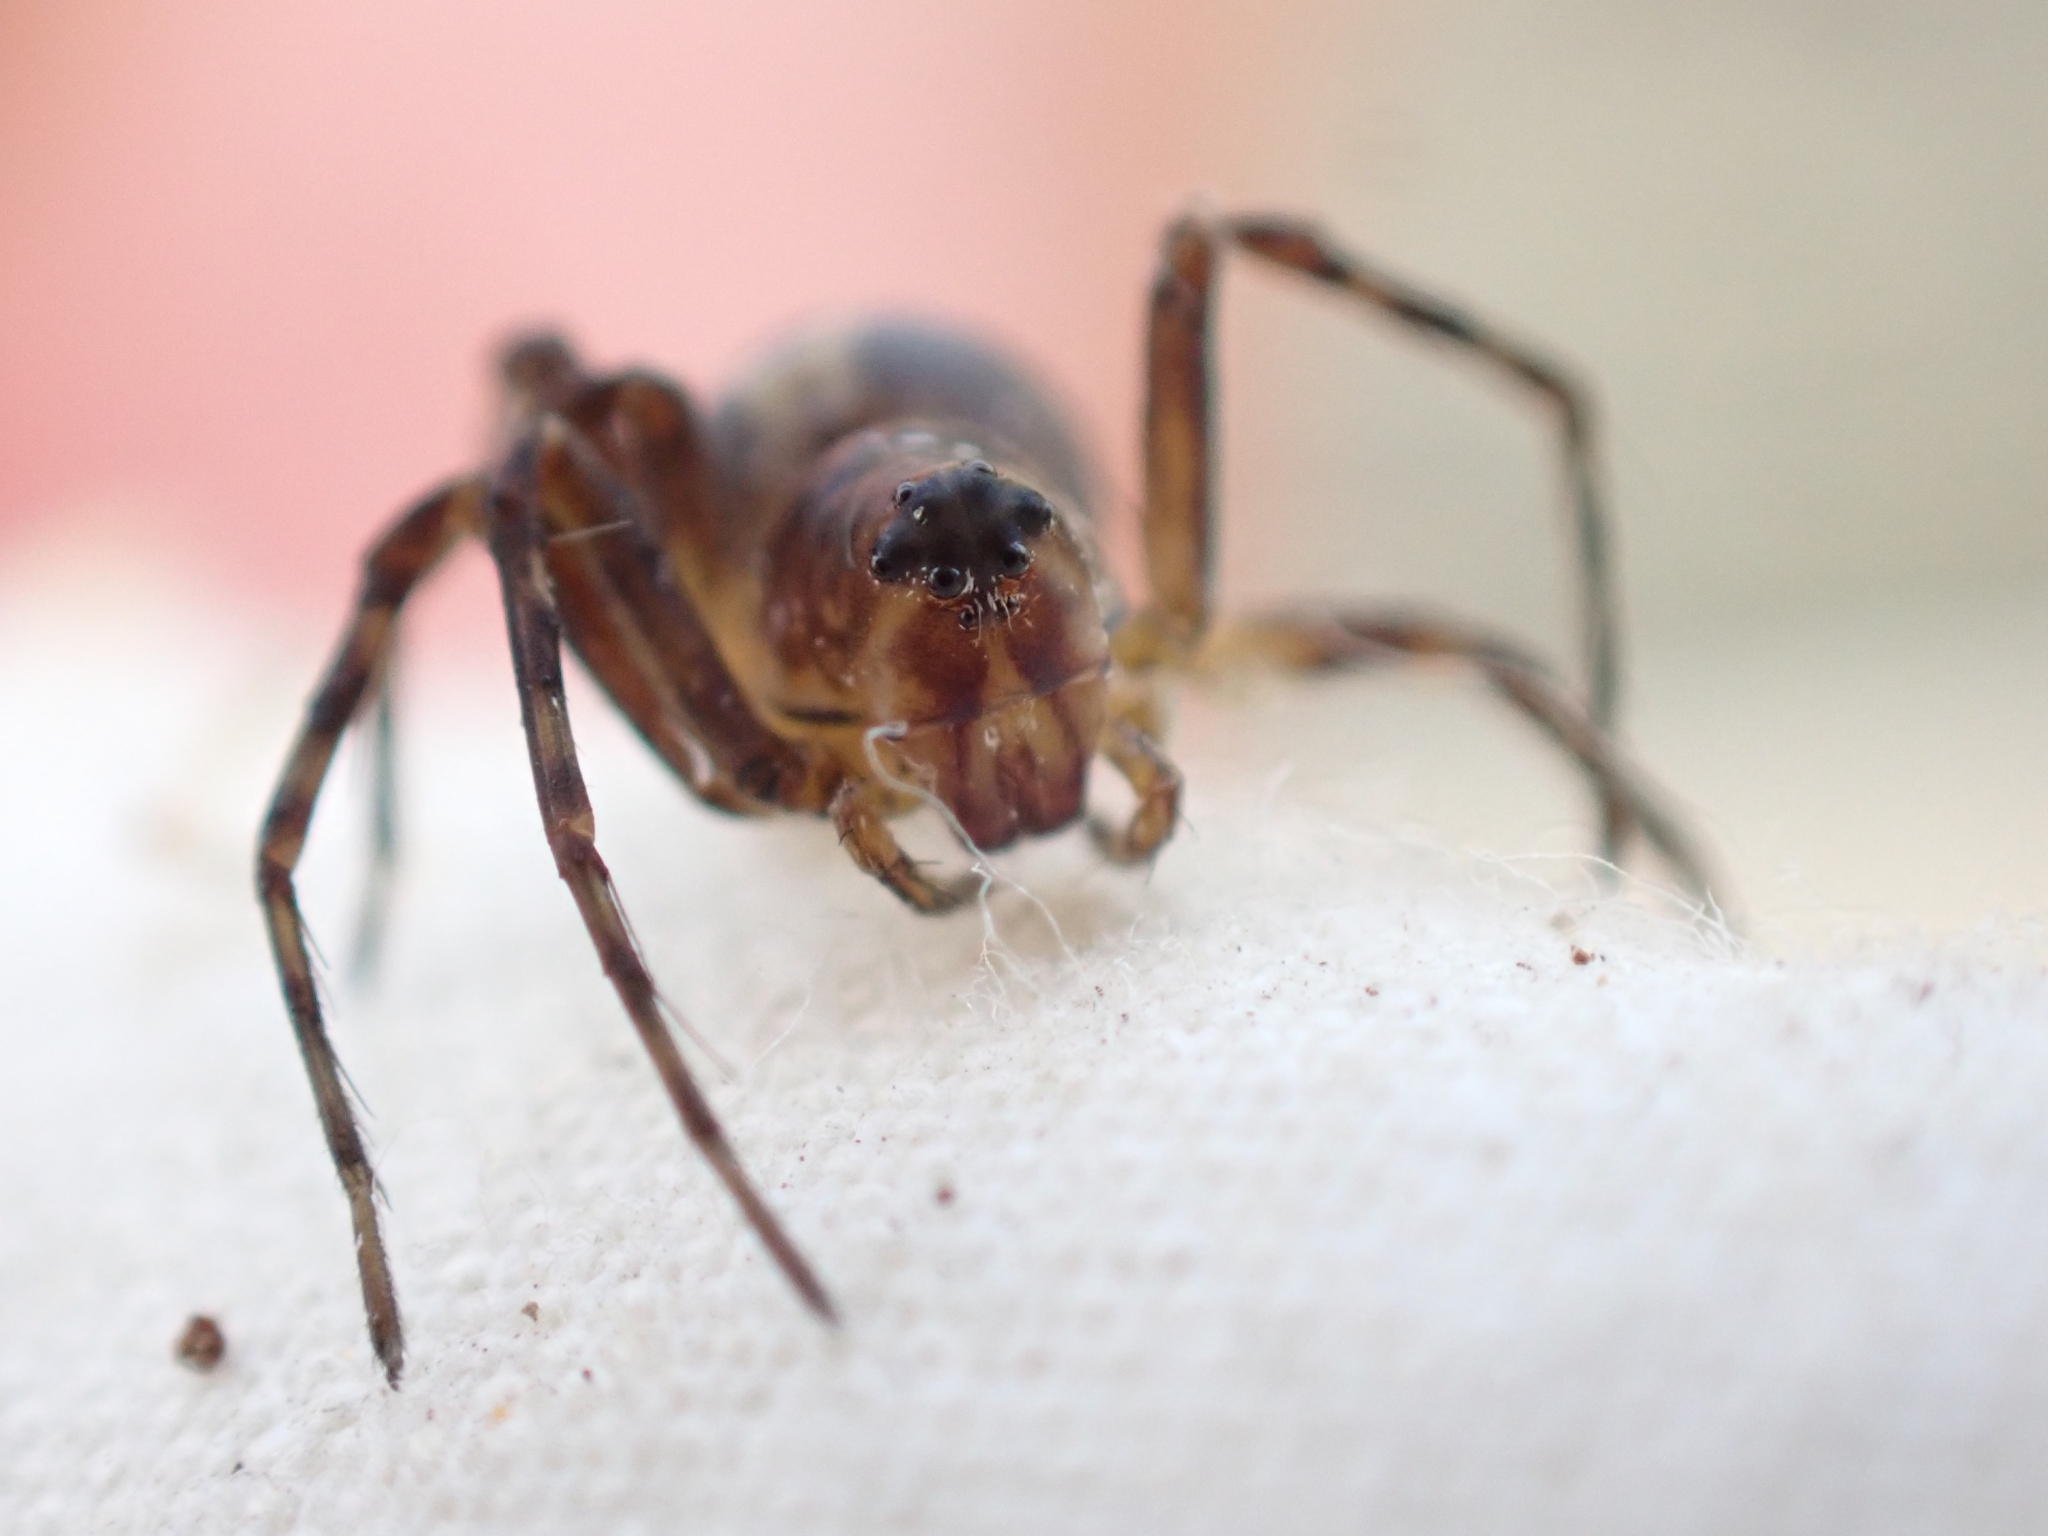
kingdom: Animalia
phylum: Arthropoda
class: Arachnida
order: Araneae
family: Oxyopidae
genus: Oxyopes
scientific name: Oxyopes scalaris
